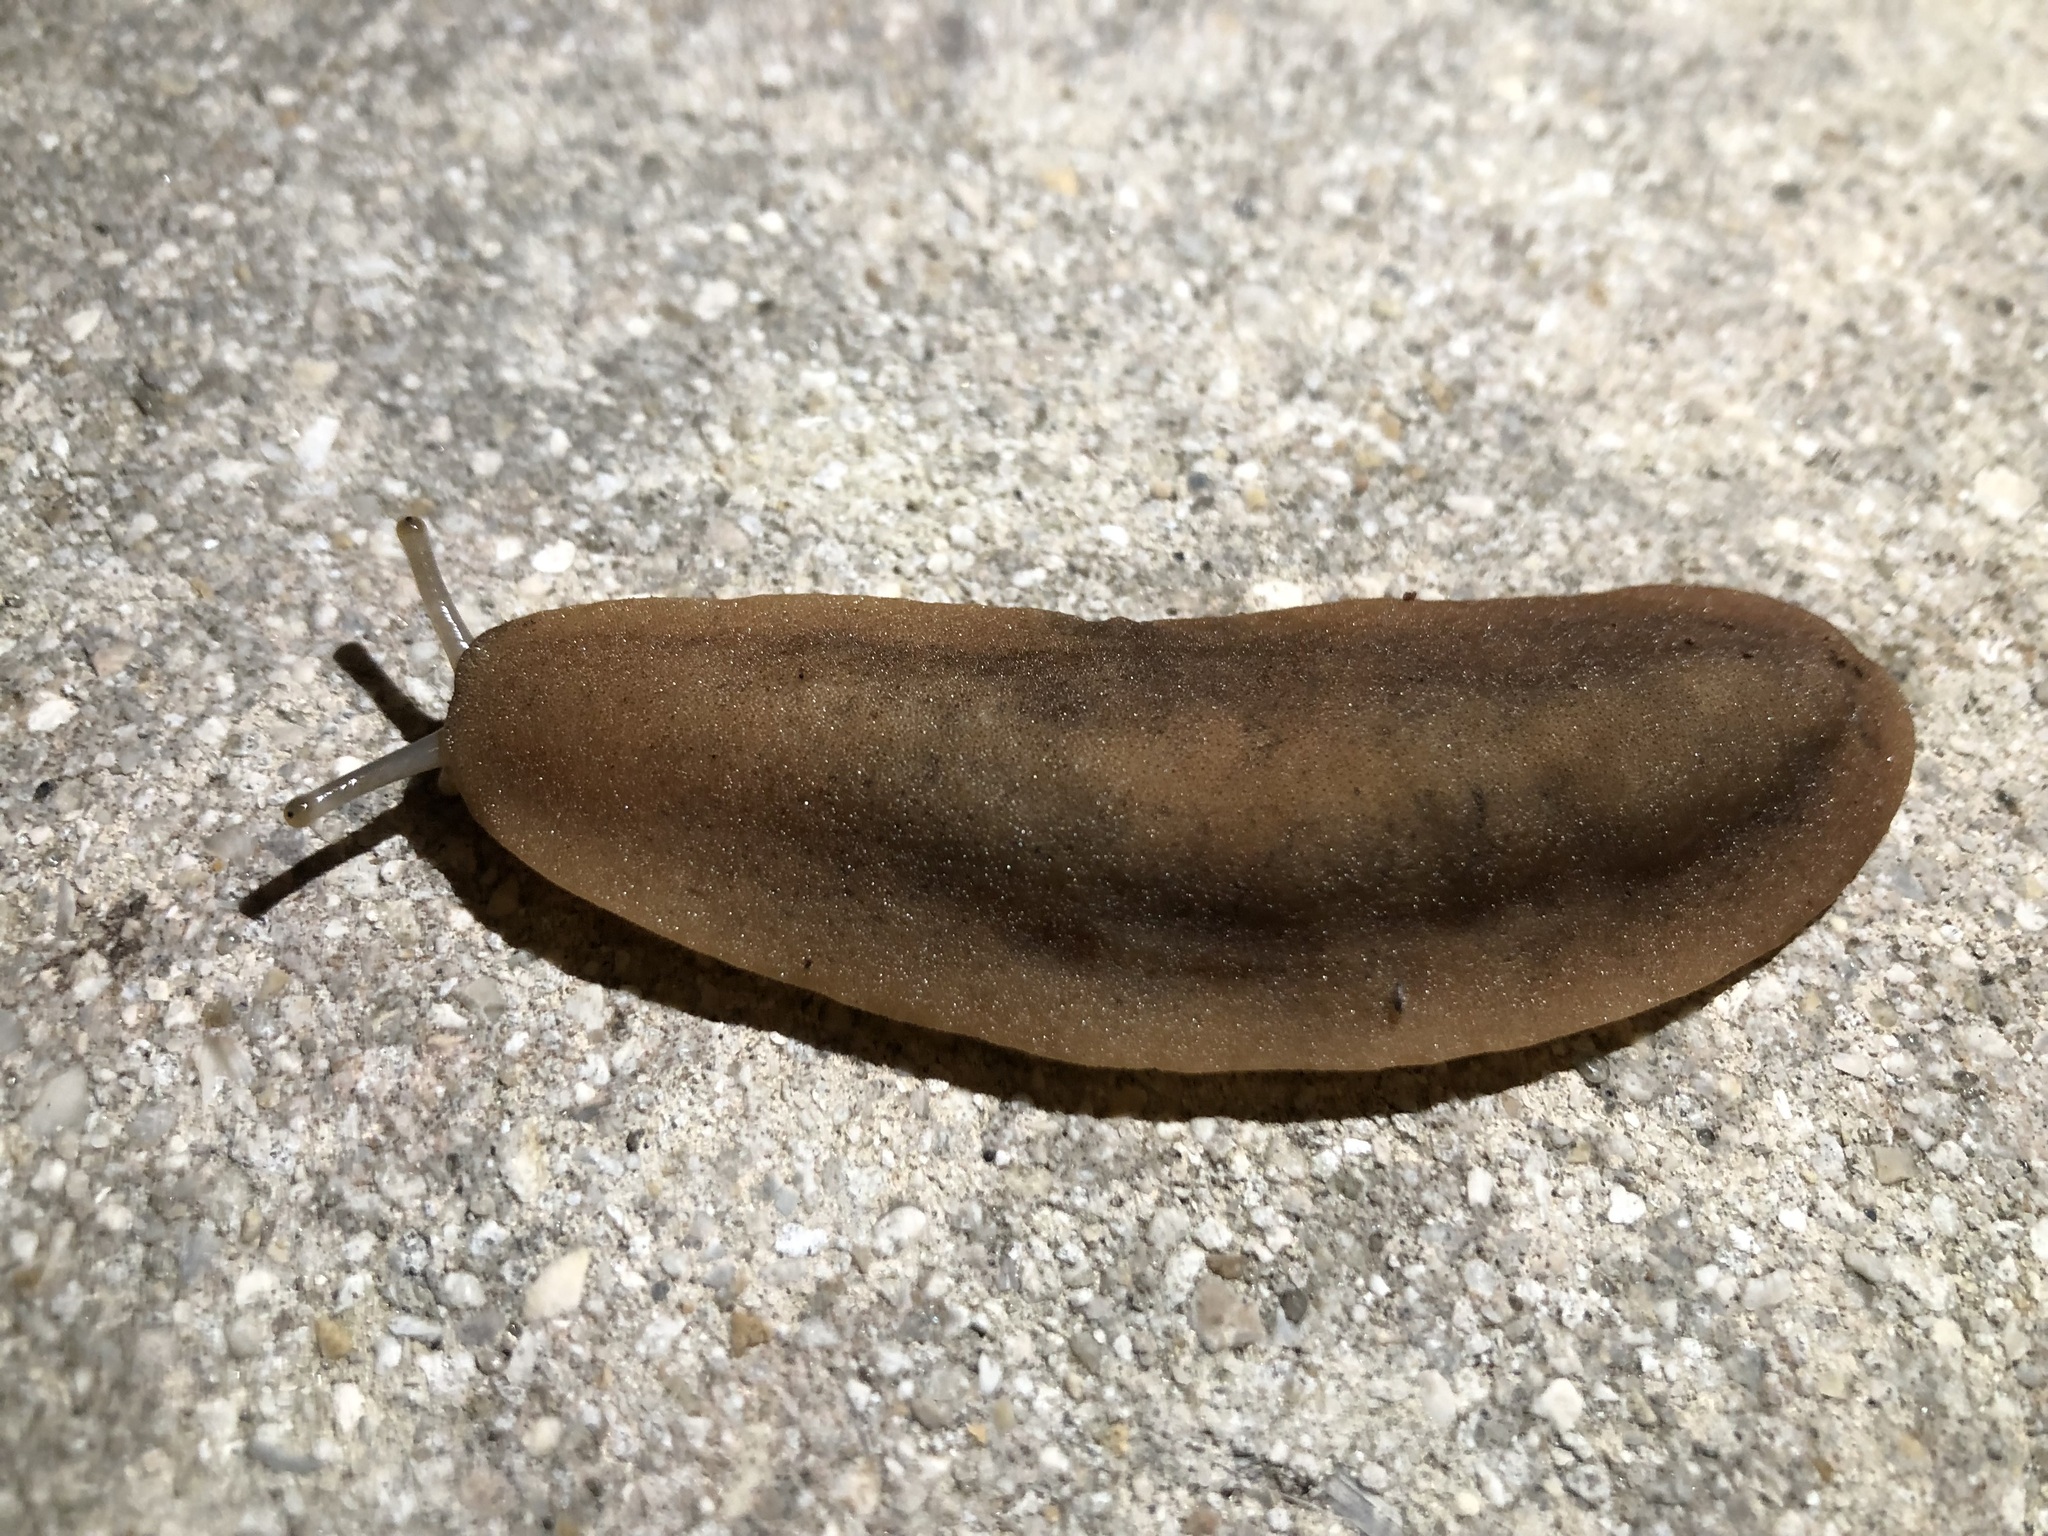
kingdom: Animalia
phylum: Mollusca
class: Gastropoda
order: Systellommatophora
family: Veronicellidae
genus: Sarasinula
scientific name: Sarasinula plebeia
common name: Caribbean leatherleaf
